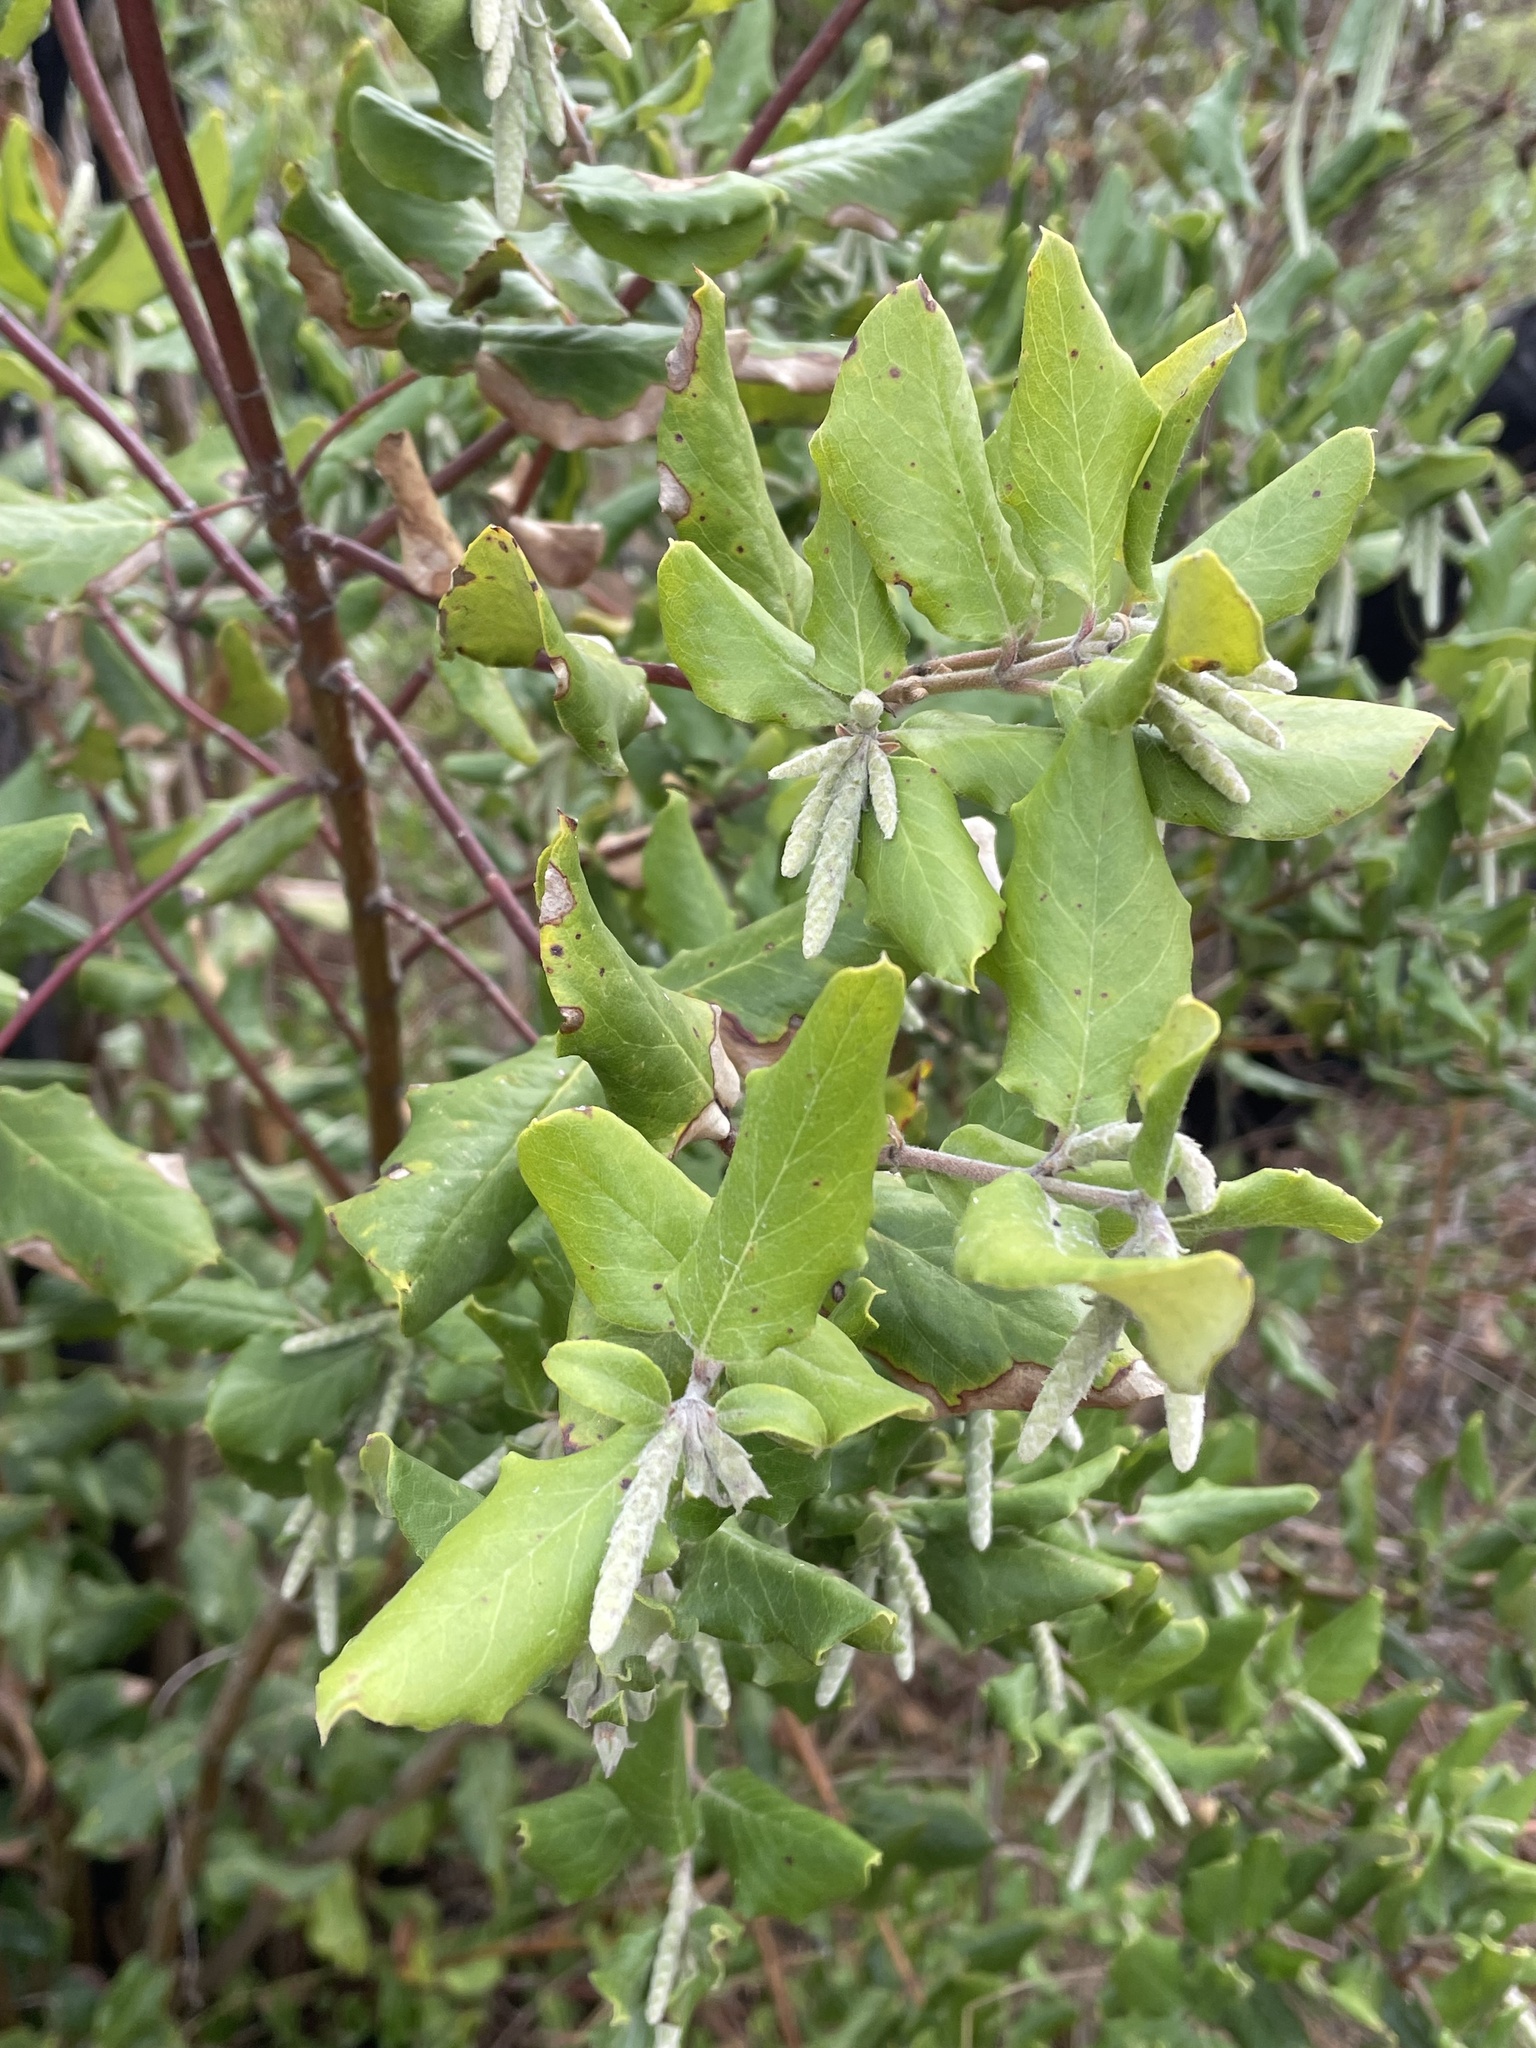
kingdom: Plantae
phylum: Tracheophyta
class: Magnoliopsida
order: Garryales
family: Garryaceae
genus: Garrya
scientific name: Garrya elliptica
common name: Silk-tassel
